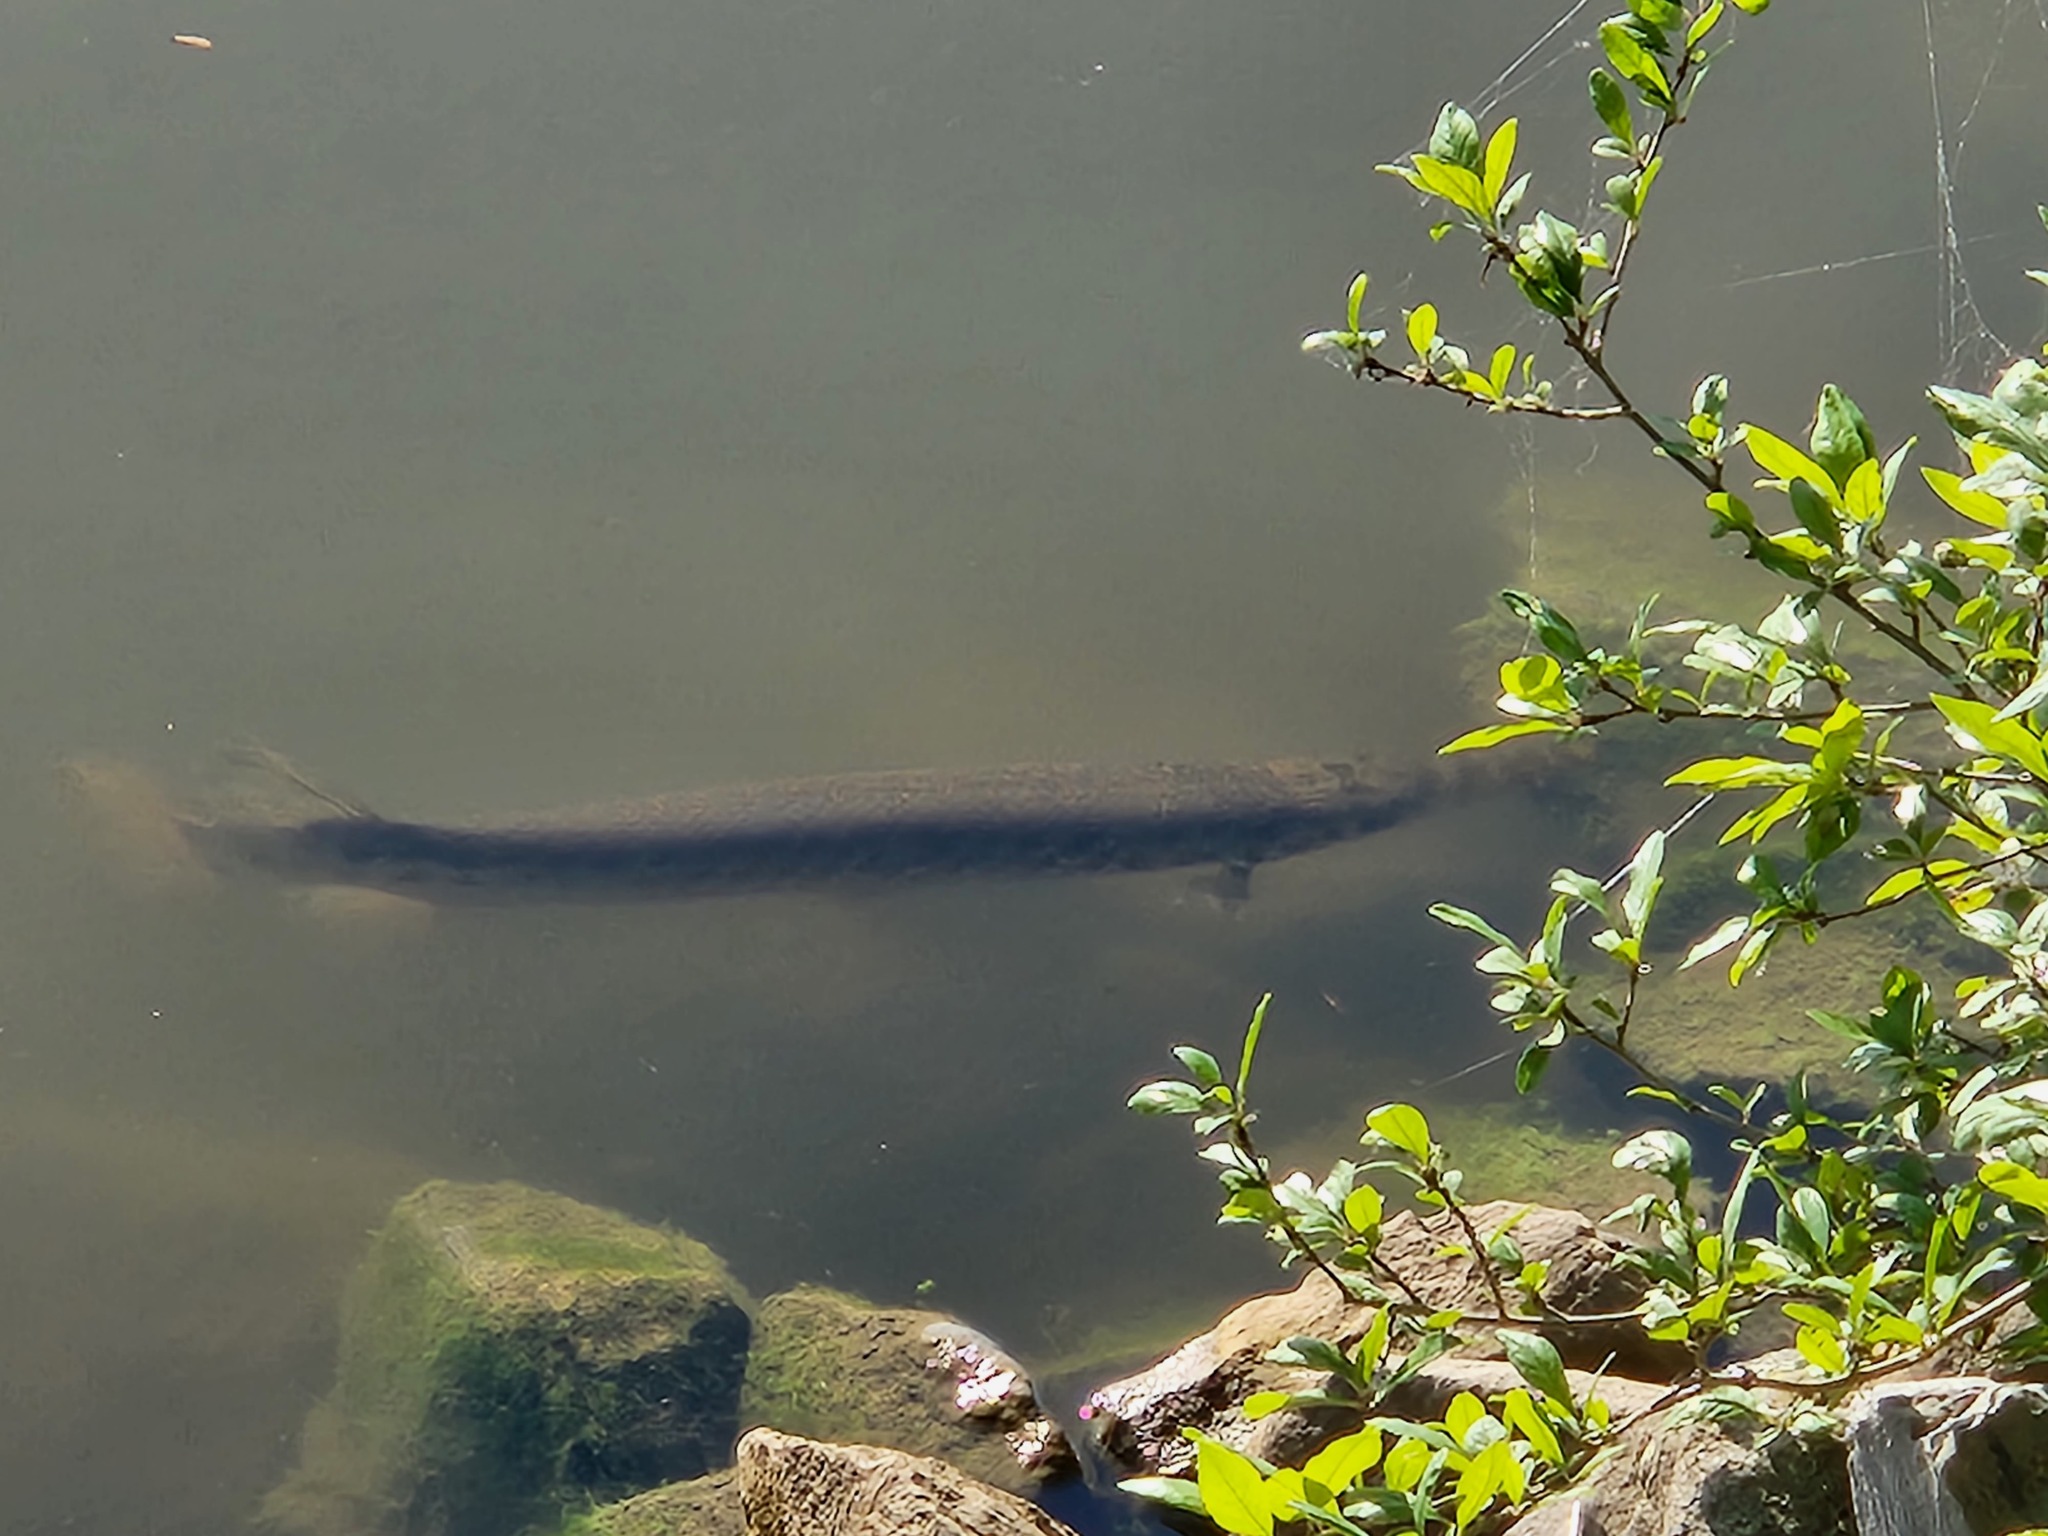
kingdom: Animalia
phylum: Chordata
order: Lepisosteiformes
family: Lepisosteidae
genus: Lepisosteus
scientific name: Lepisosteus oculatus
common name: Spotted gar
